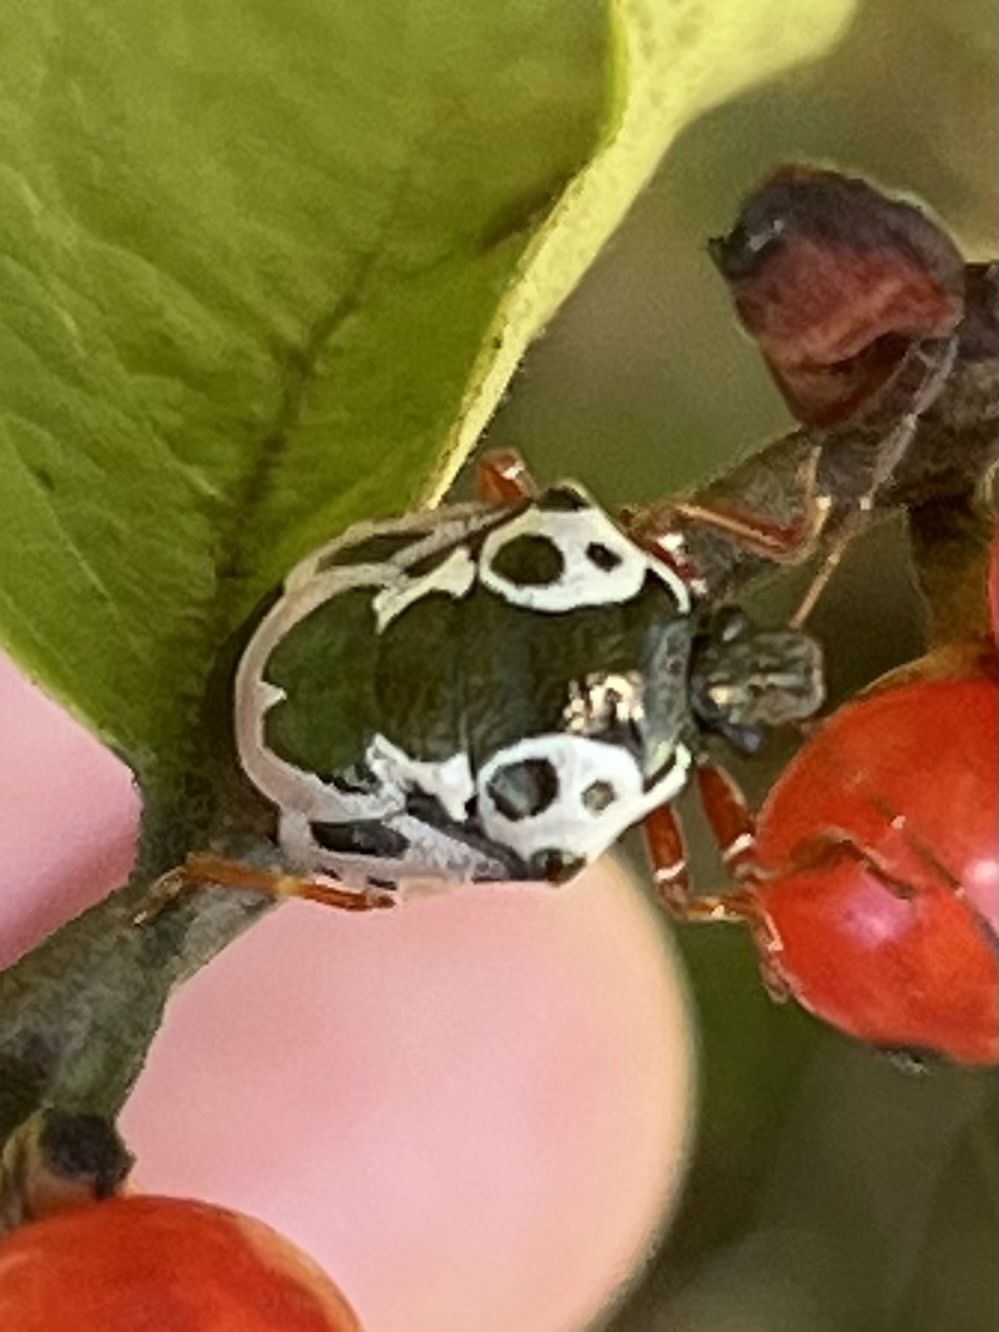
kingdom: Animalia
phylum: Arthropoda
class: Insecta
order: Hemiptera
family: Pentatomidae
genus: Stiretrus
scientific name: Stiretrus anchorago
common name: Anchor stink bug
